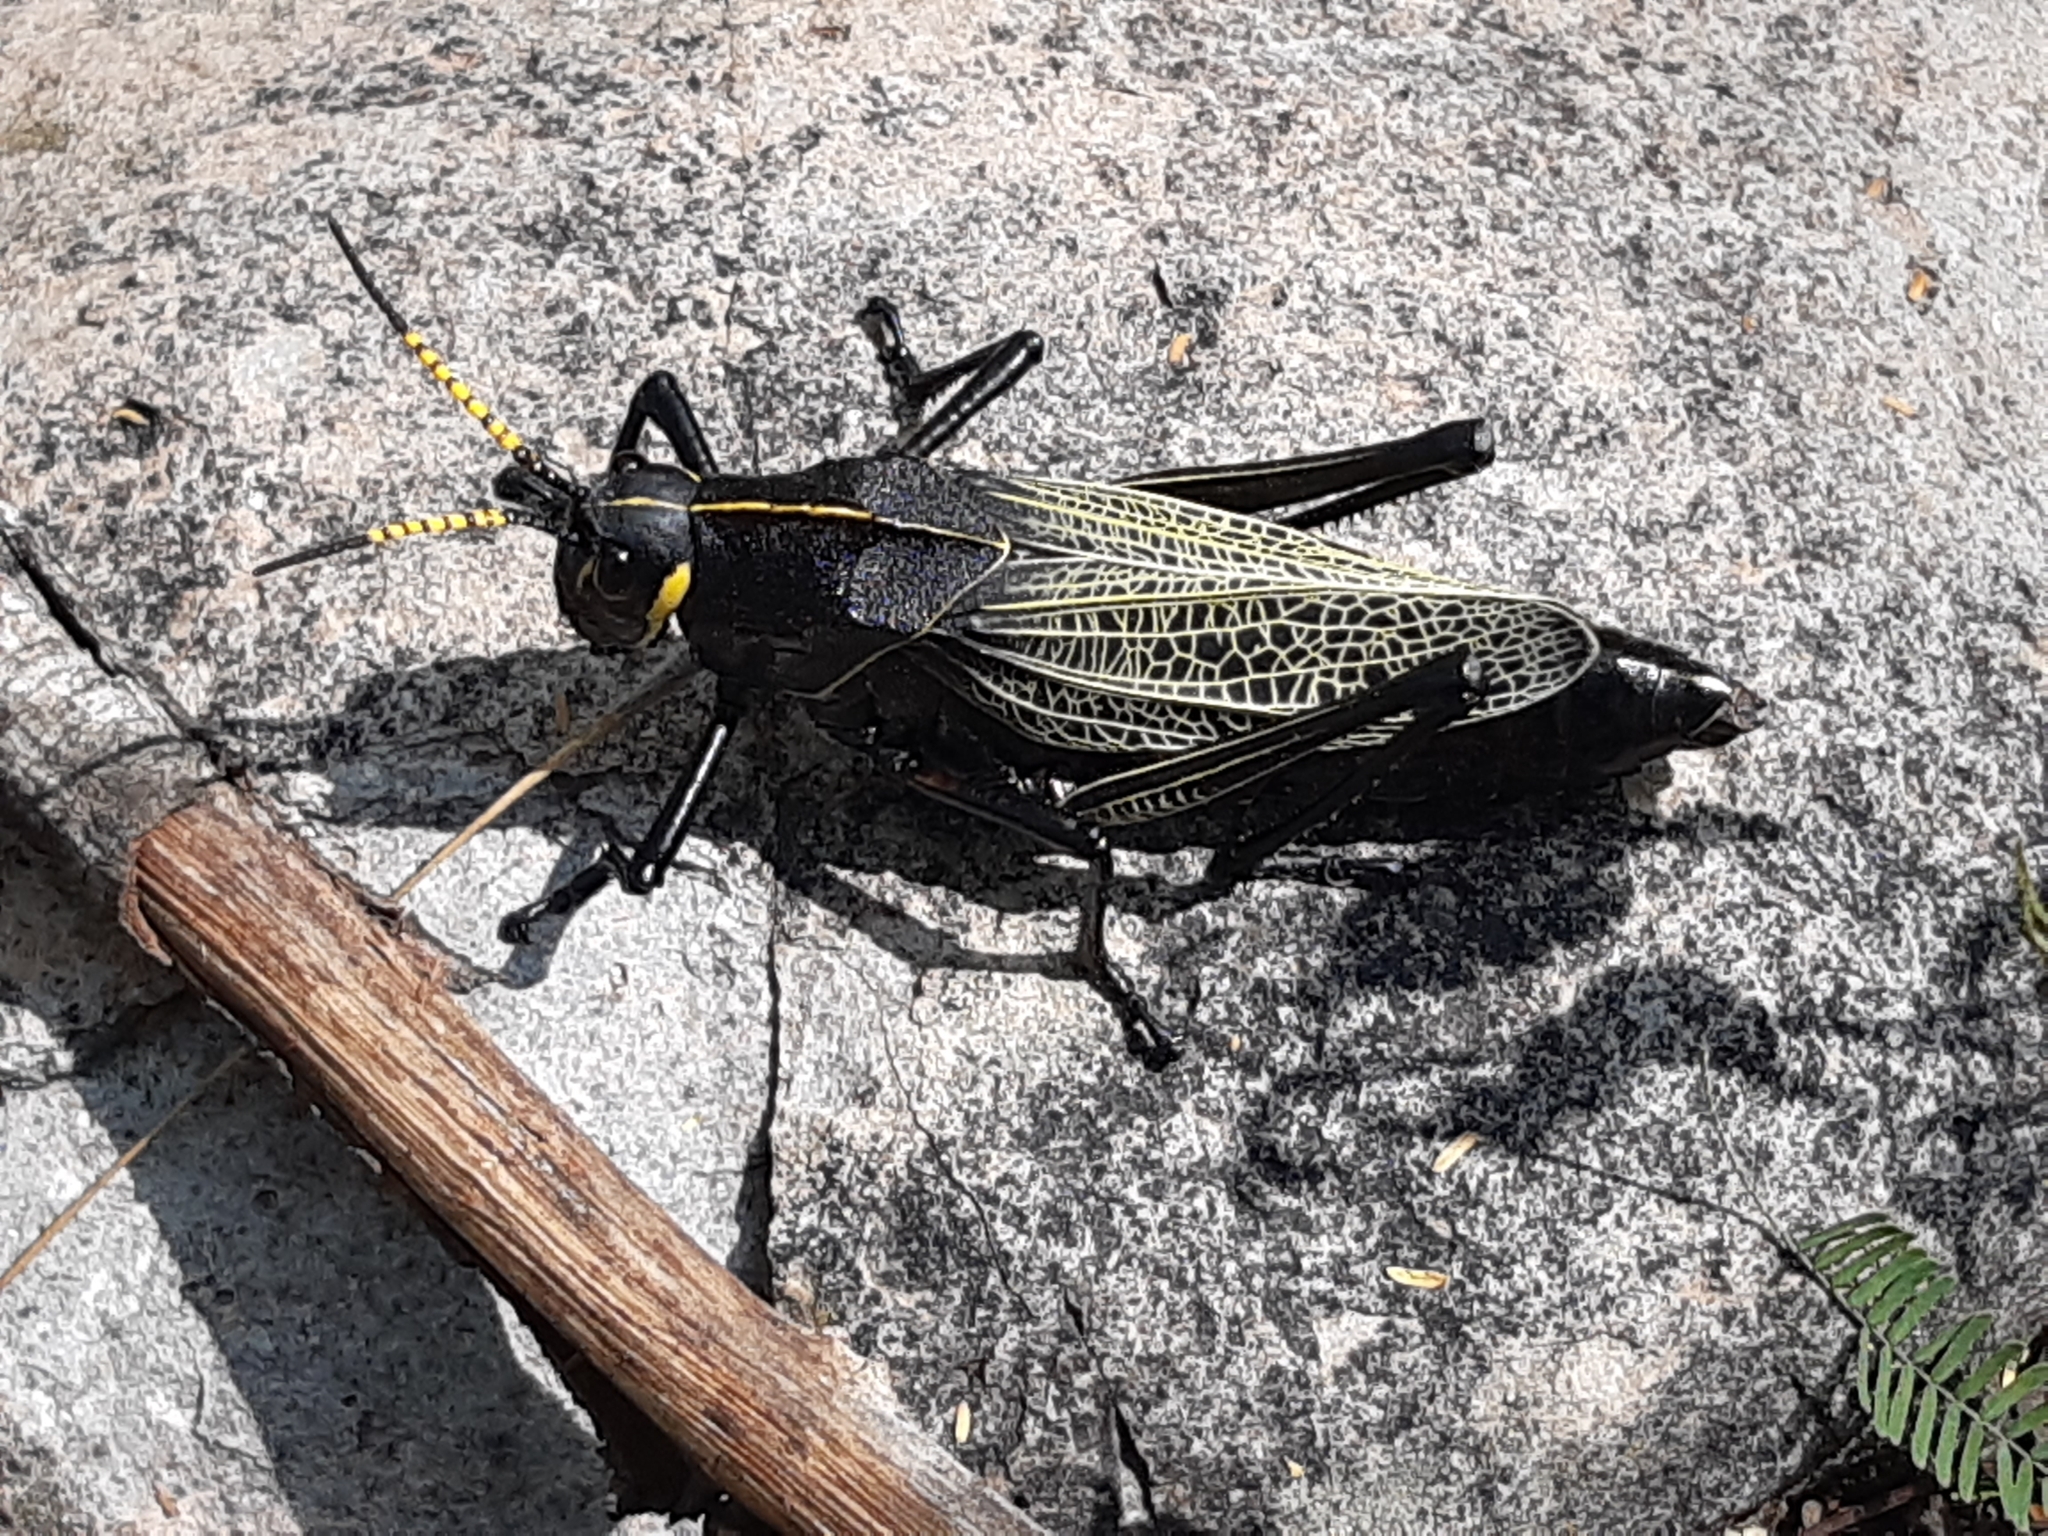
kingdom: Animalia
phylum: Arthropoda
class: Insecta
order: Orthoptera
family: Romaleidae
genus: Romalea
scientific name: Romalea
